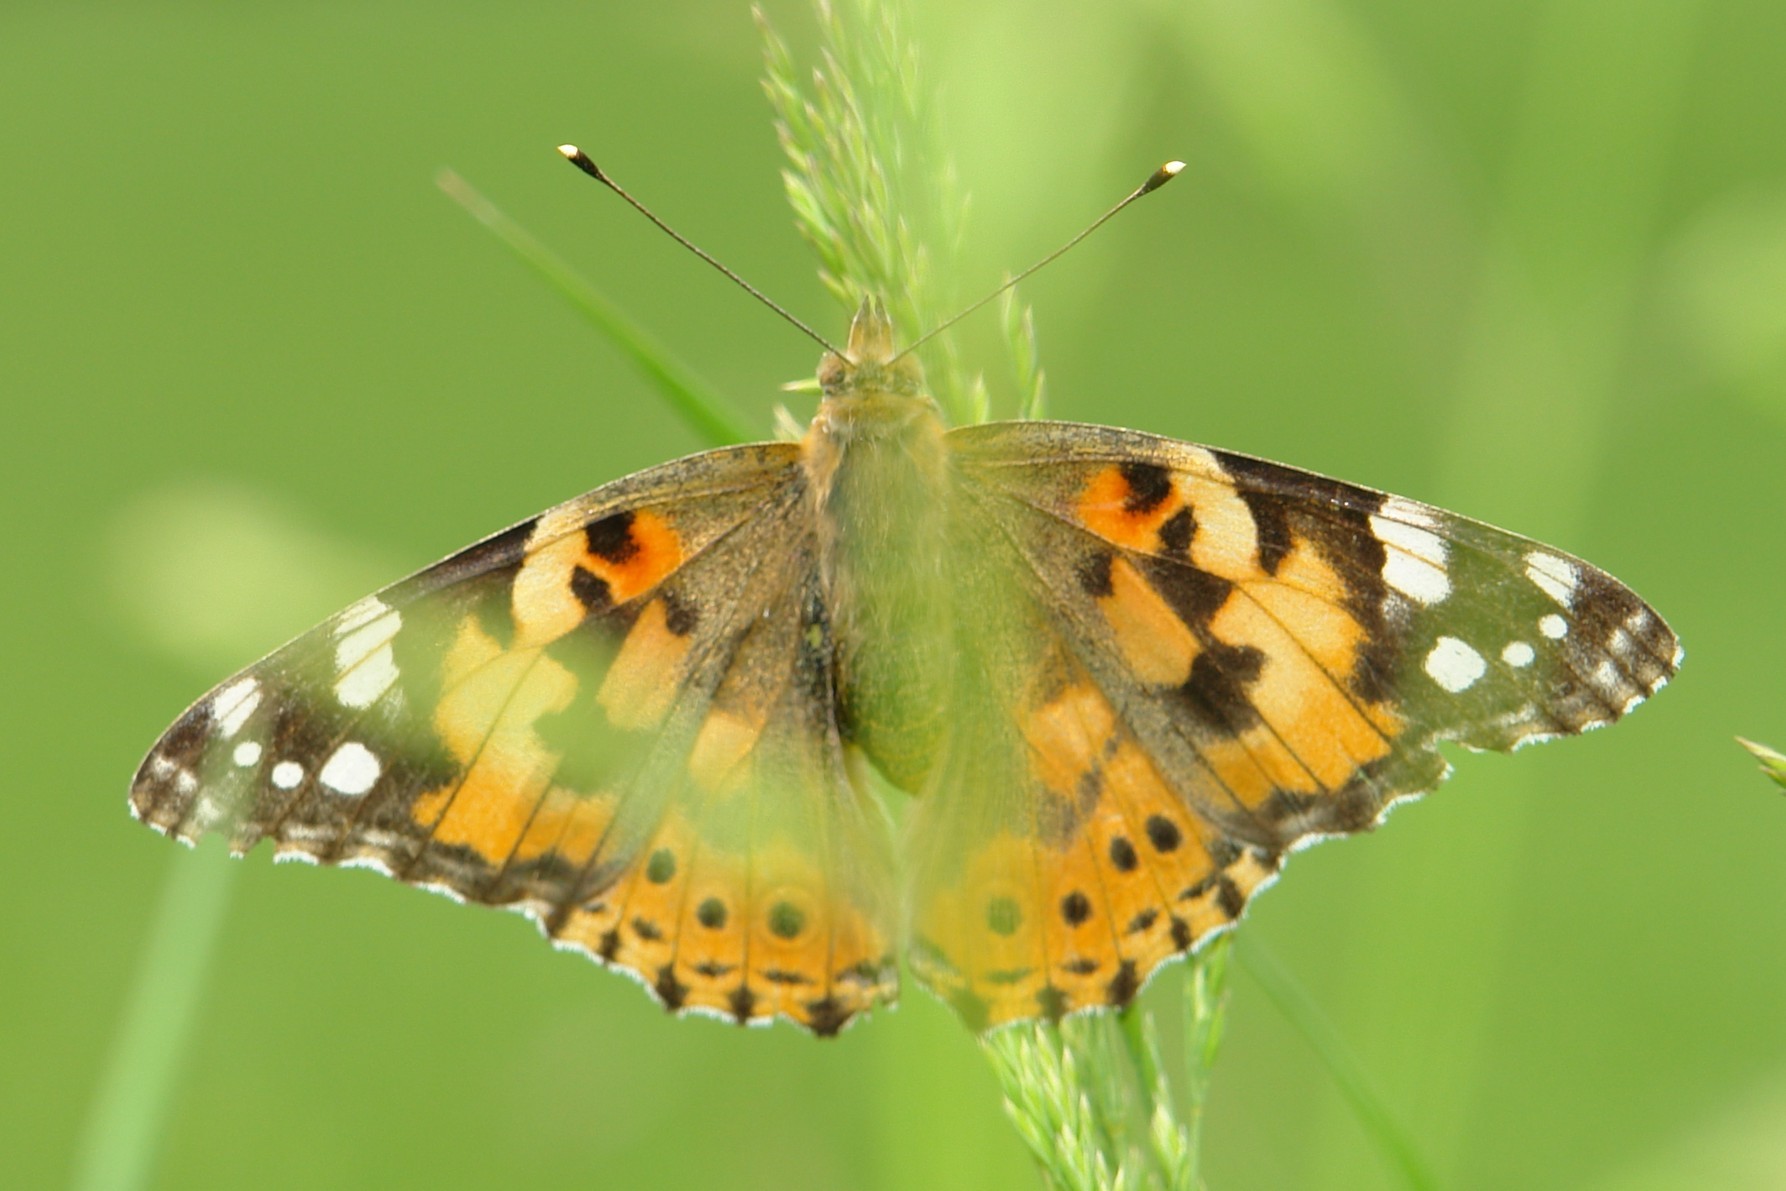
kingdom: Animalia
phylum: Arthropoda
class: Insecta
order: Lepidoptera
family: Nymphalidae
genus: Vanessa
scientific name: Vanessa cardui
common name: Painted lady
